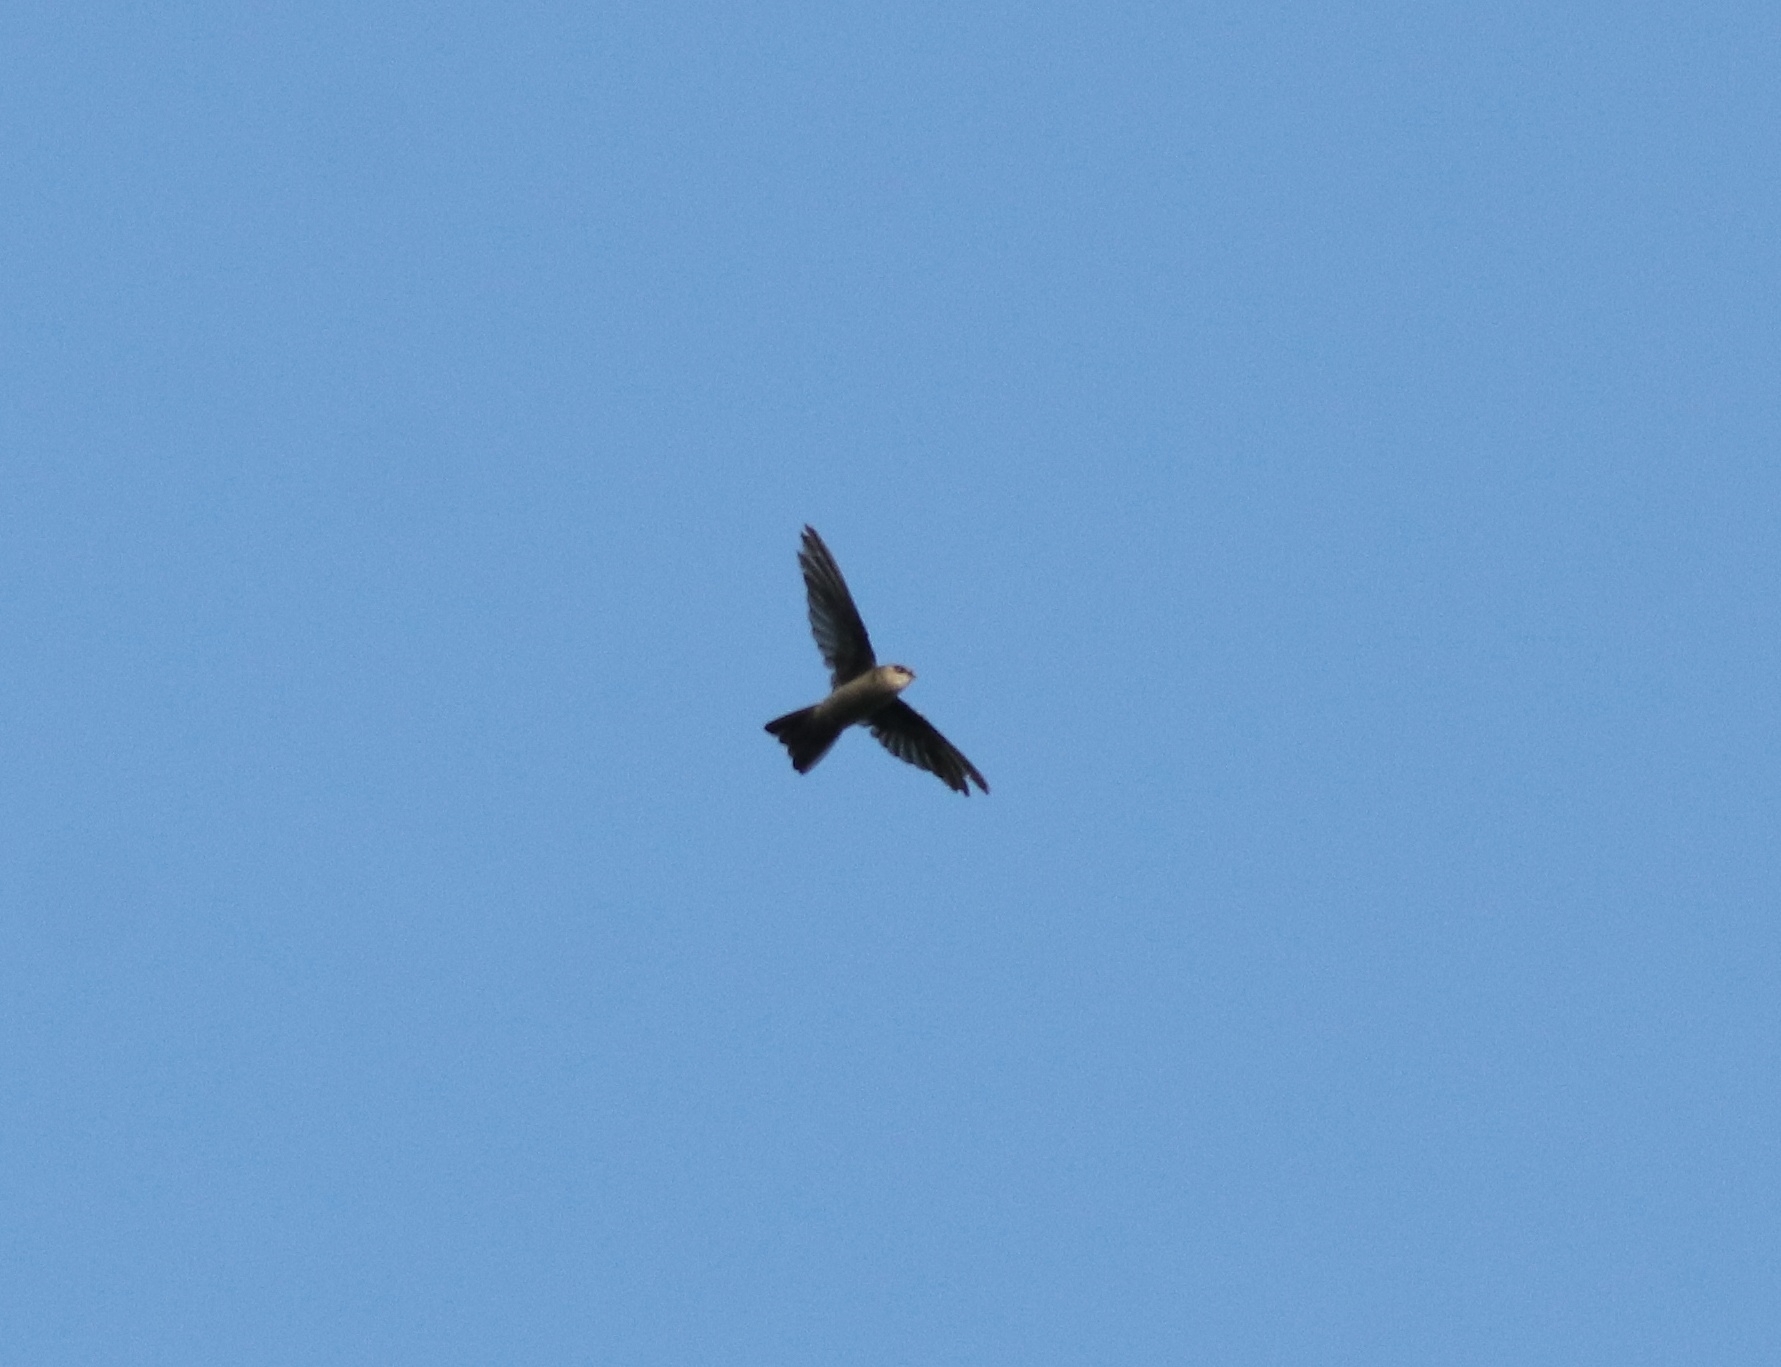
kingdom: Animalia
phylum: Chordata
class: Aves
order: Apodiformes
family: Apodidae
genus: Aerodramus
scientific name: Aerodramus unicolor
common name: Indian swiftlet
